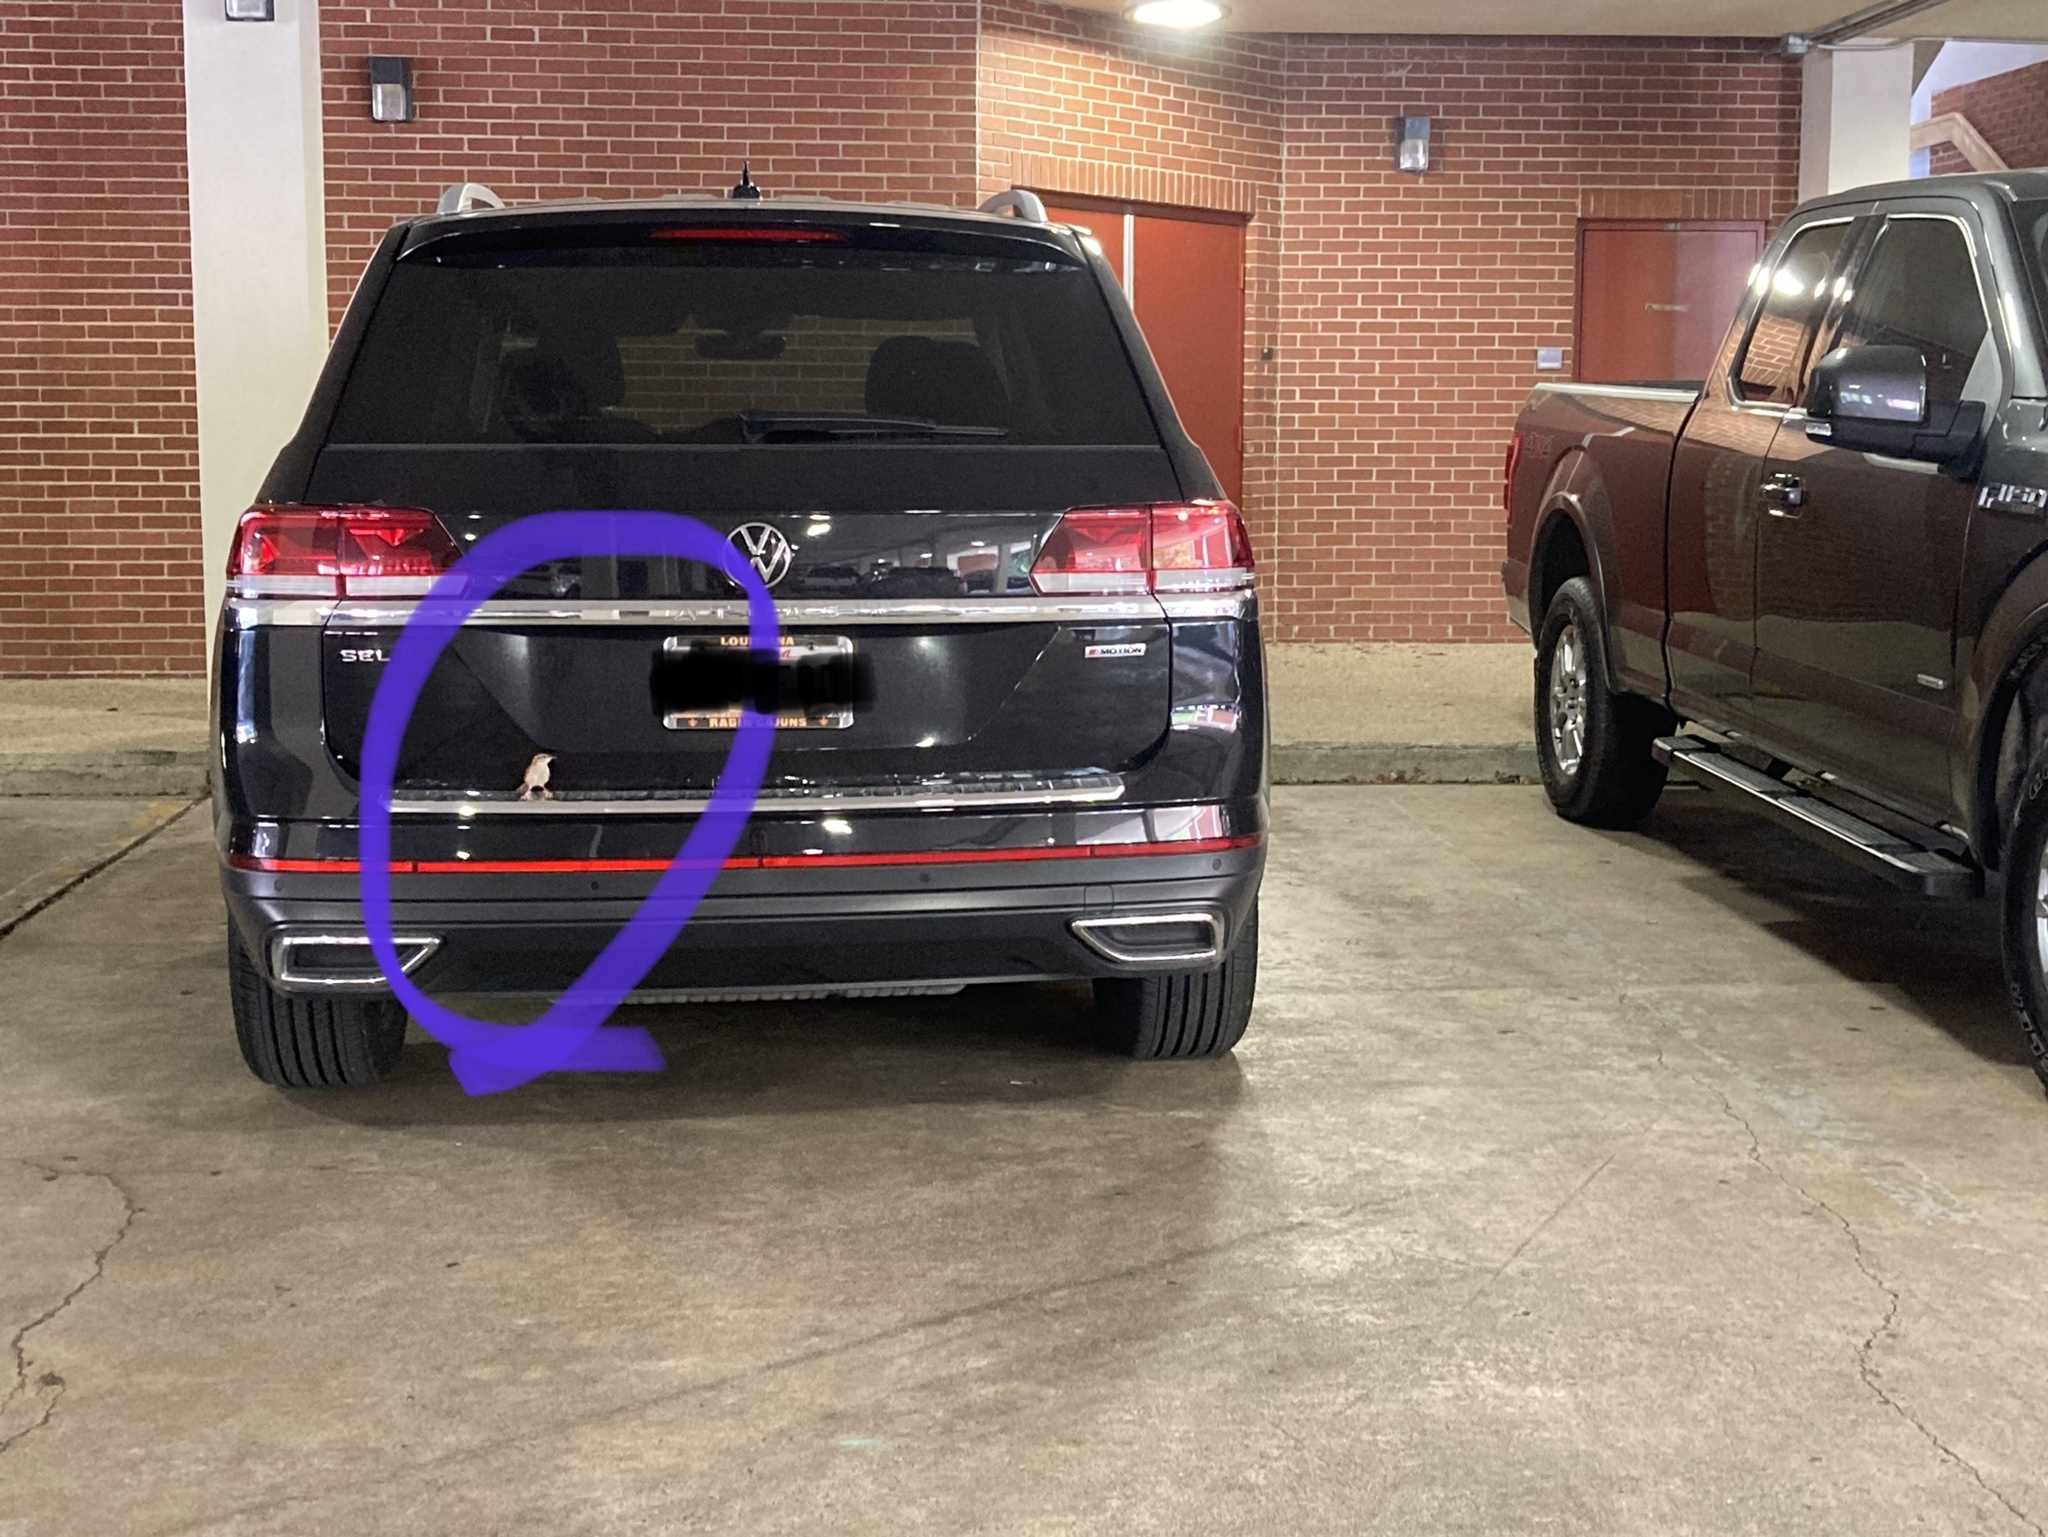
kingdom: Animalia
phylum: Chordata
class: Aves
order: Passeriformes
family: Troglodytidae
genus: Thryothorus
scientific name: Thryothorus ludovicianus
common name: Carolina wren
